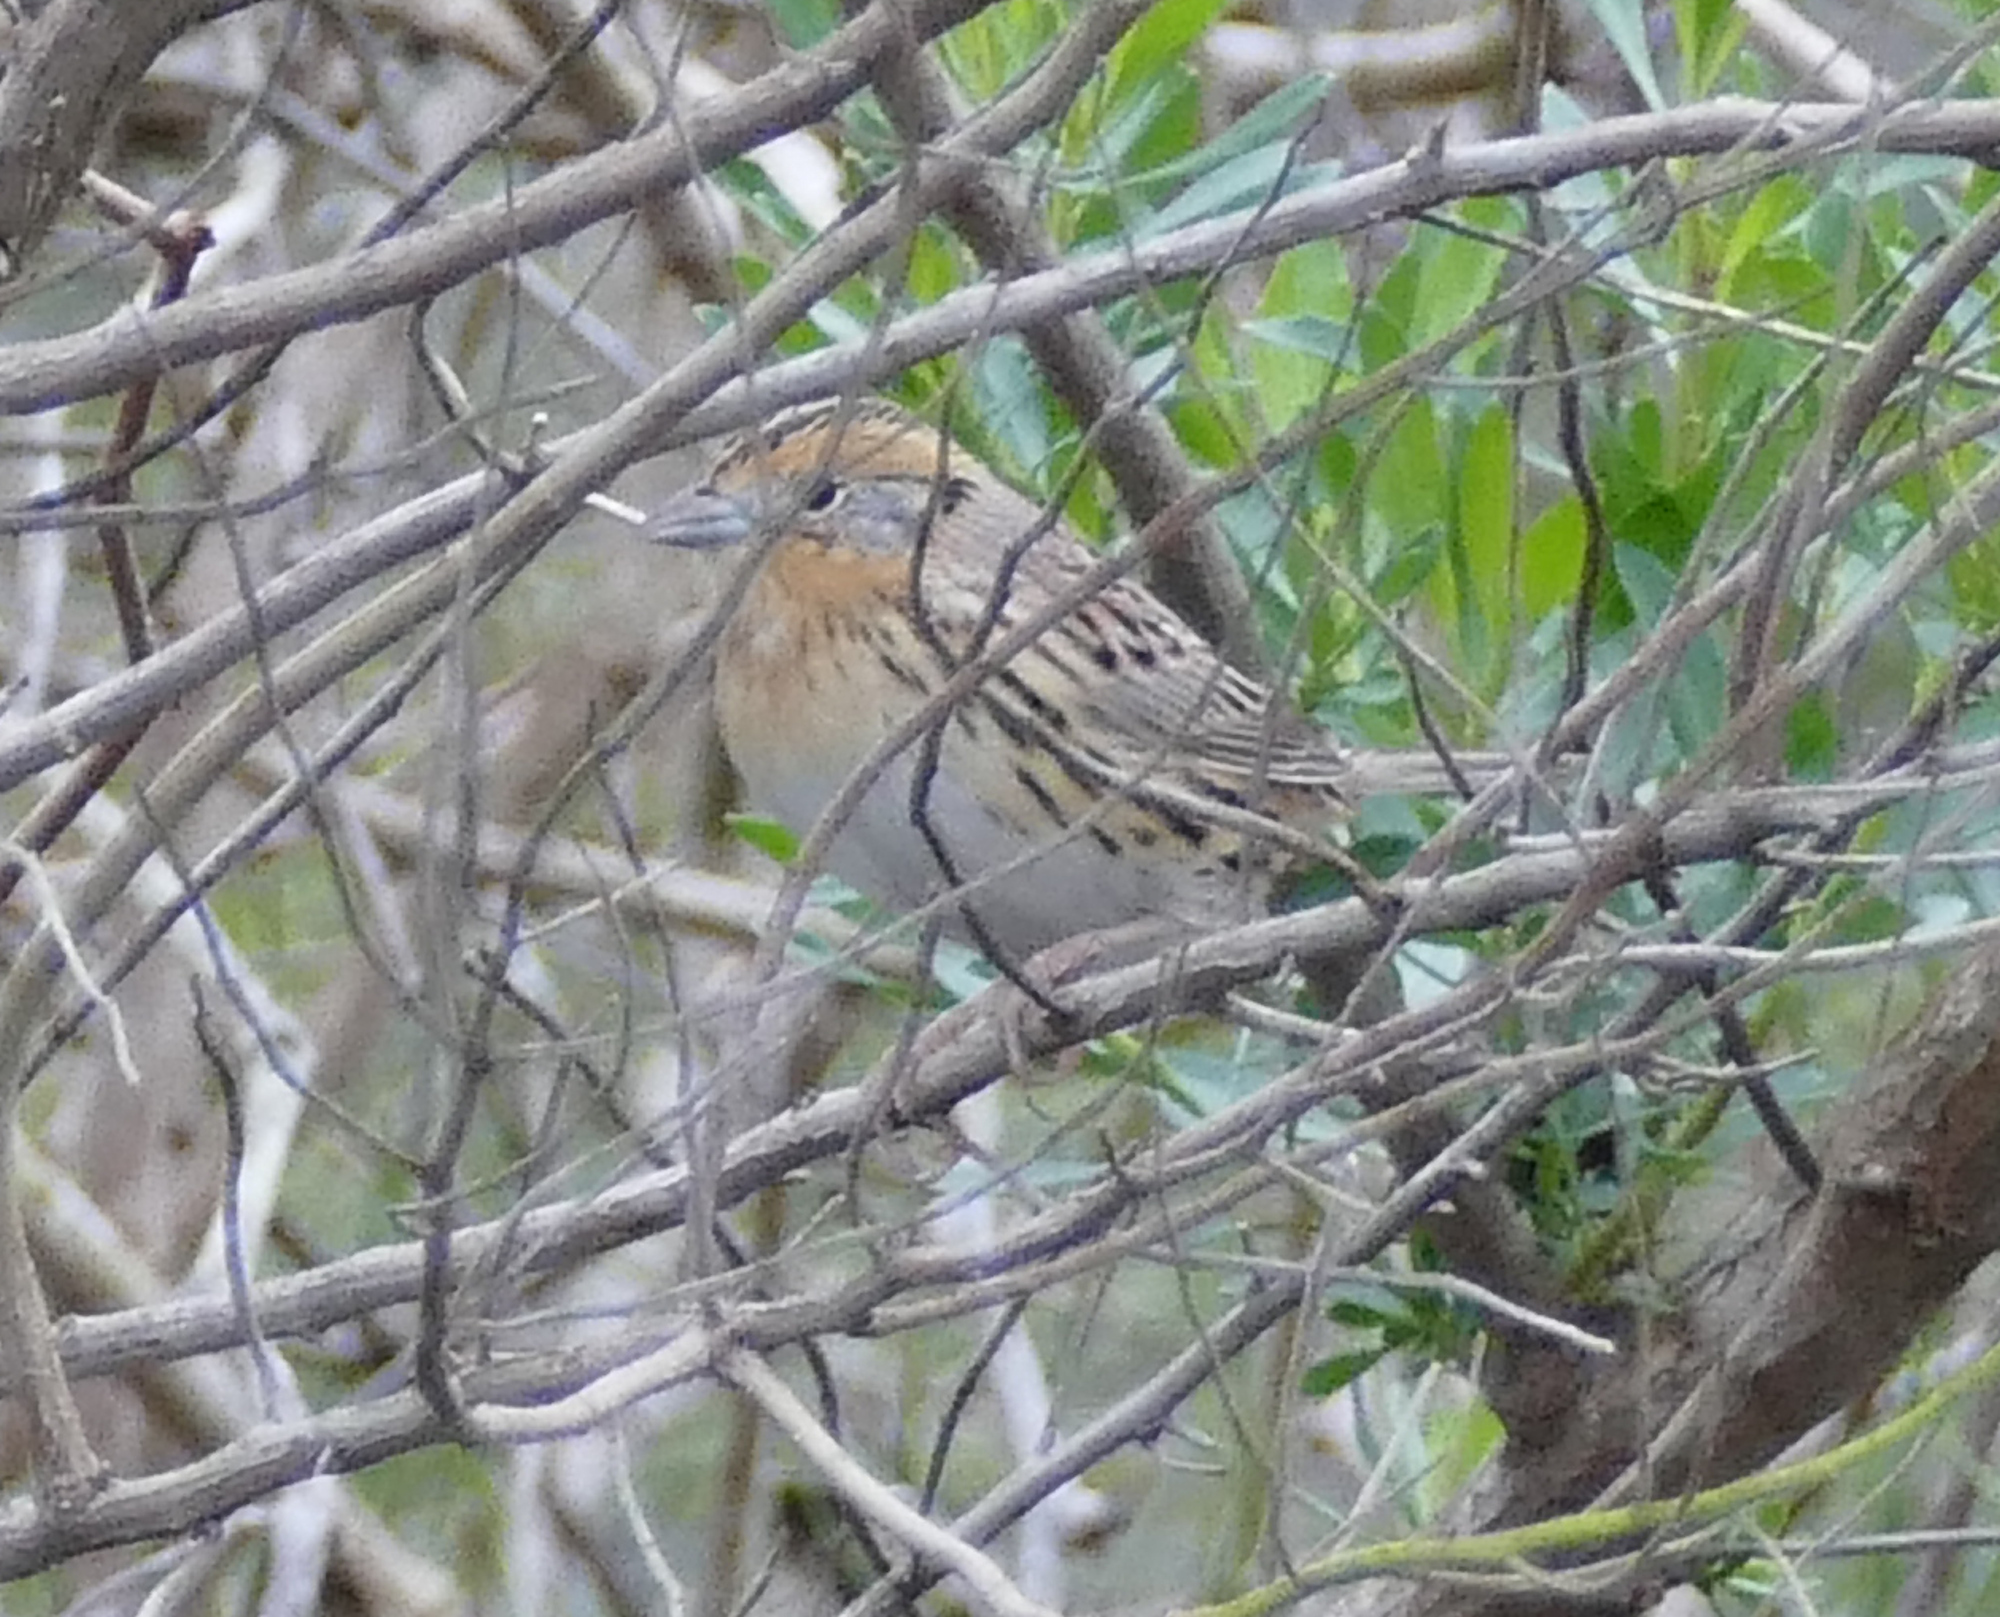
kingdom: Animalia
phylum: Chordata
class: Aves
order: Passeriformes
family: Passerellidae
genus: Ammospiza
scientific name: Ammospiza leconteii
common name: Le conte's sparrow
